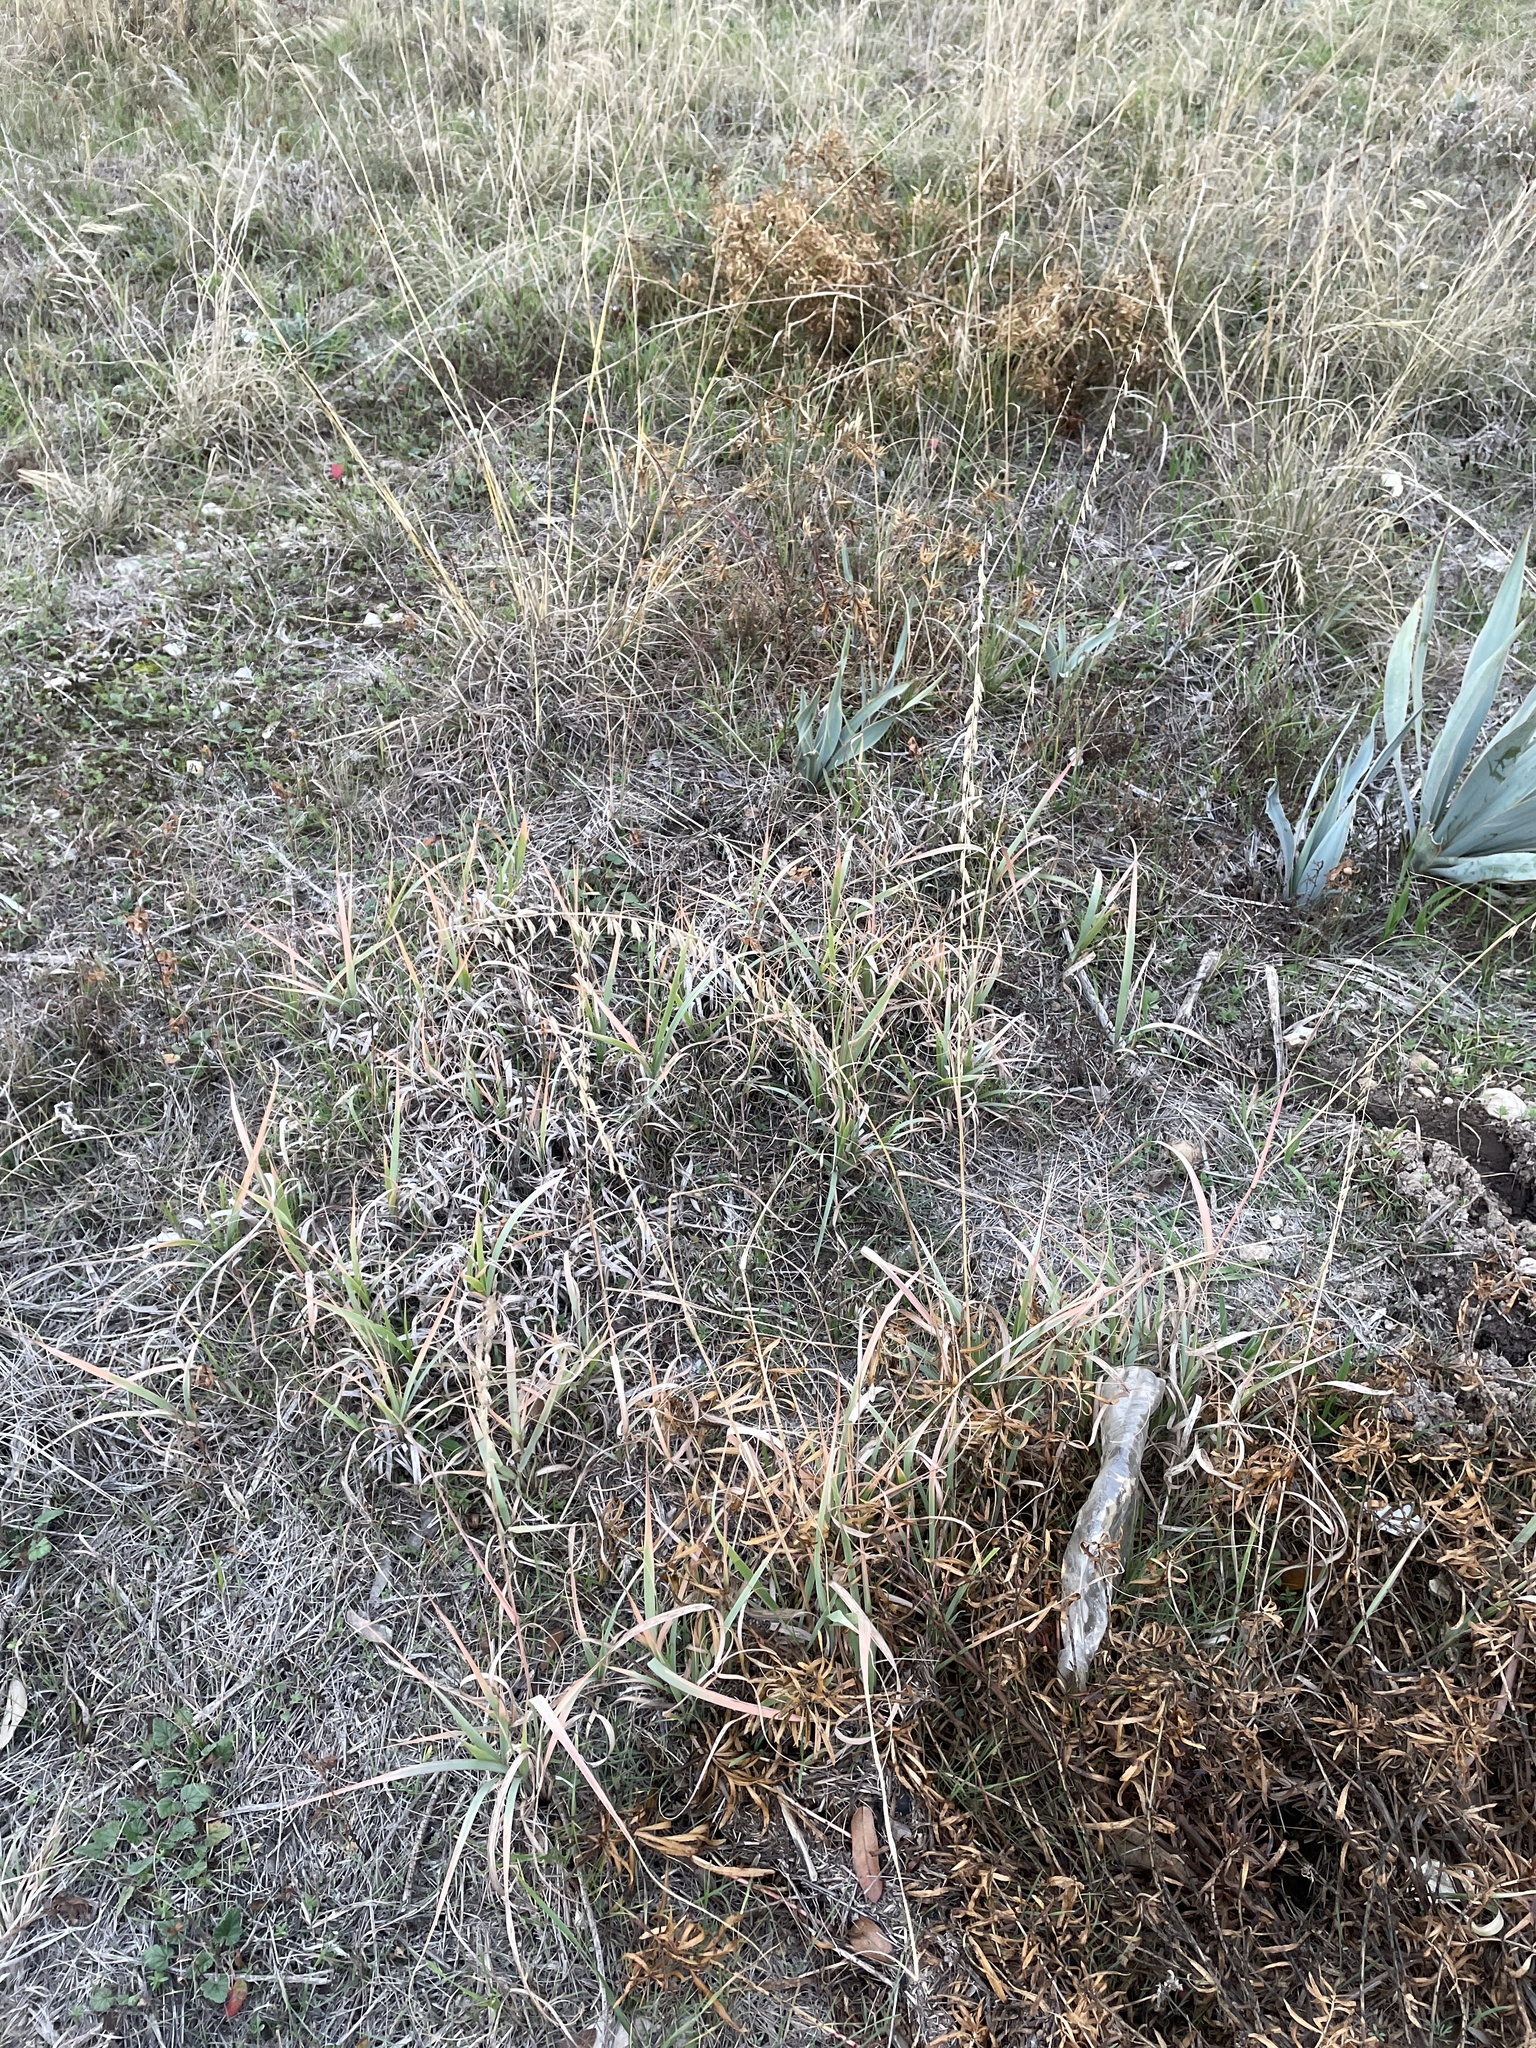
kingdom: Plantae
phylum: Tracheophyta
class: Liliopsida
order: Poales
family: Poaceae
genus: Bouteloua
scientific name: Bouteloua curtipendula
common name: Side-oats grama
